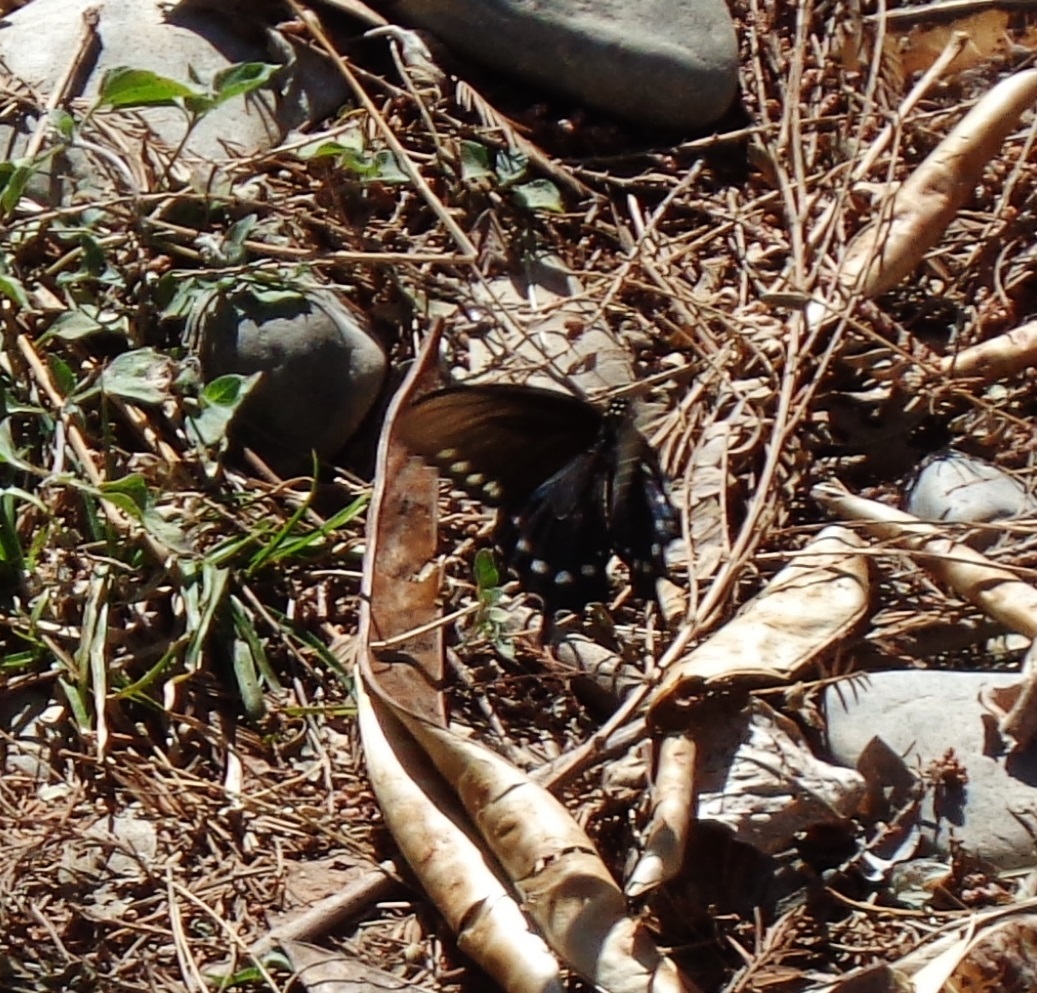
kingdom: Animalia
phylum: Arthropoda
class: Insecta
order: Lepidoptera
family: Papilionidae
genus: Battus
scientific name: Battus philenor
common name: Pipevine swallowtail
